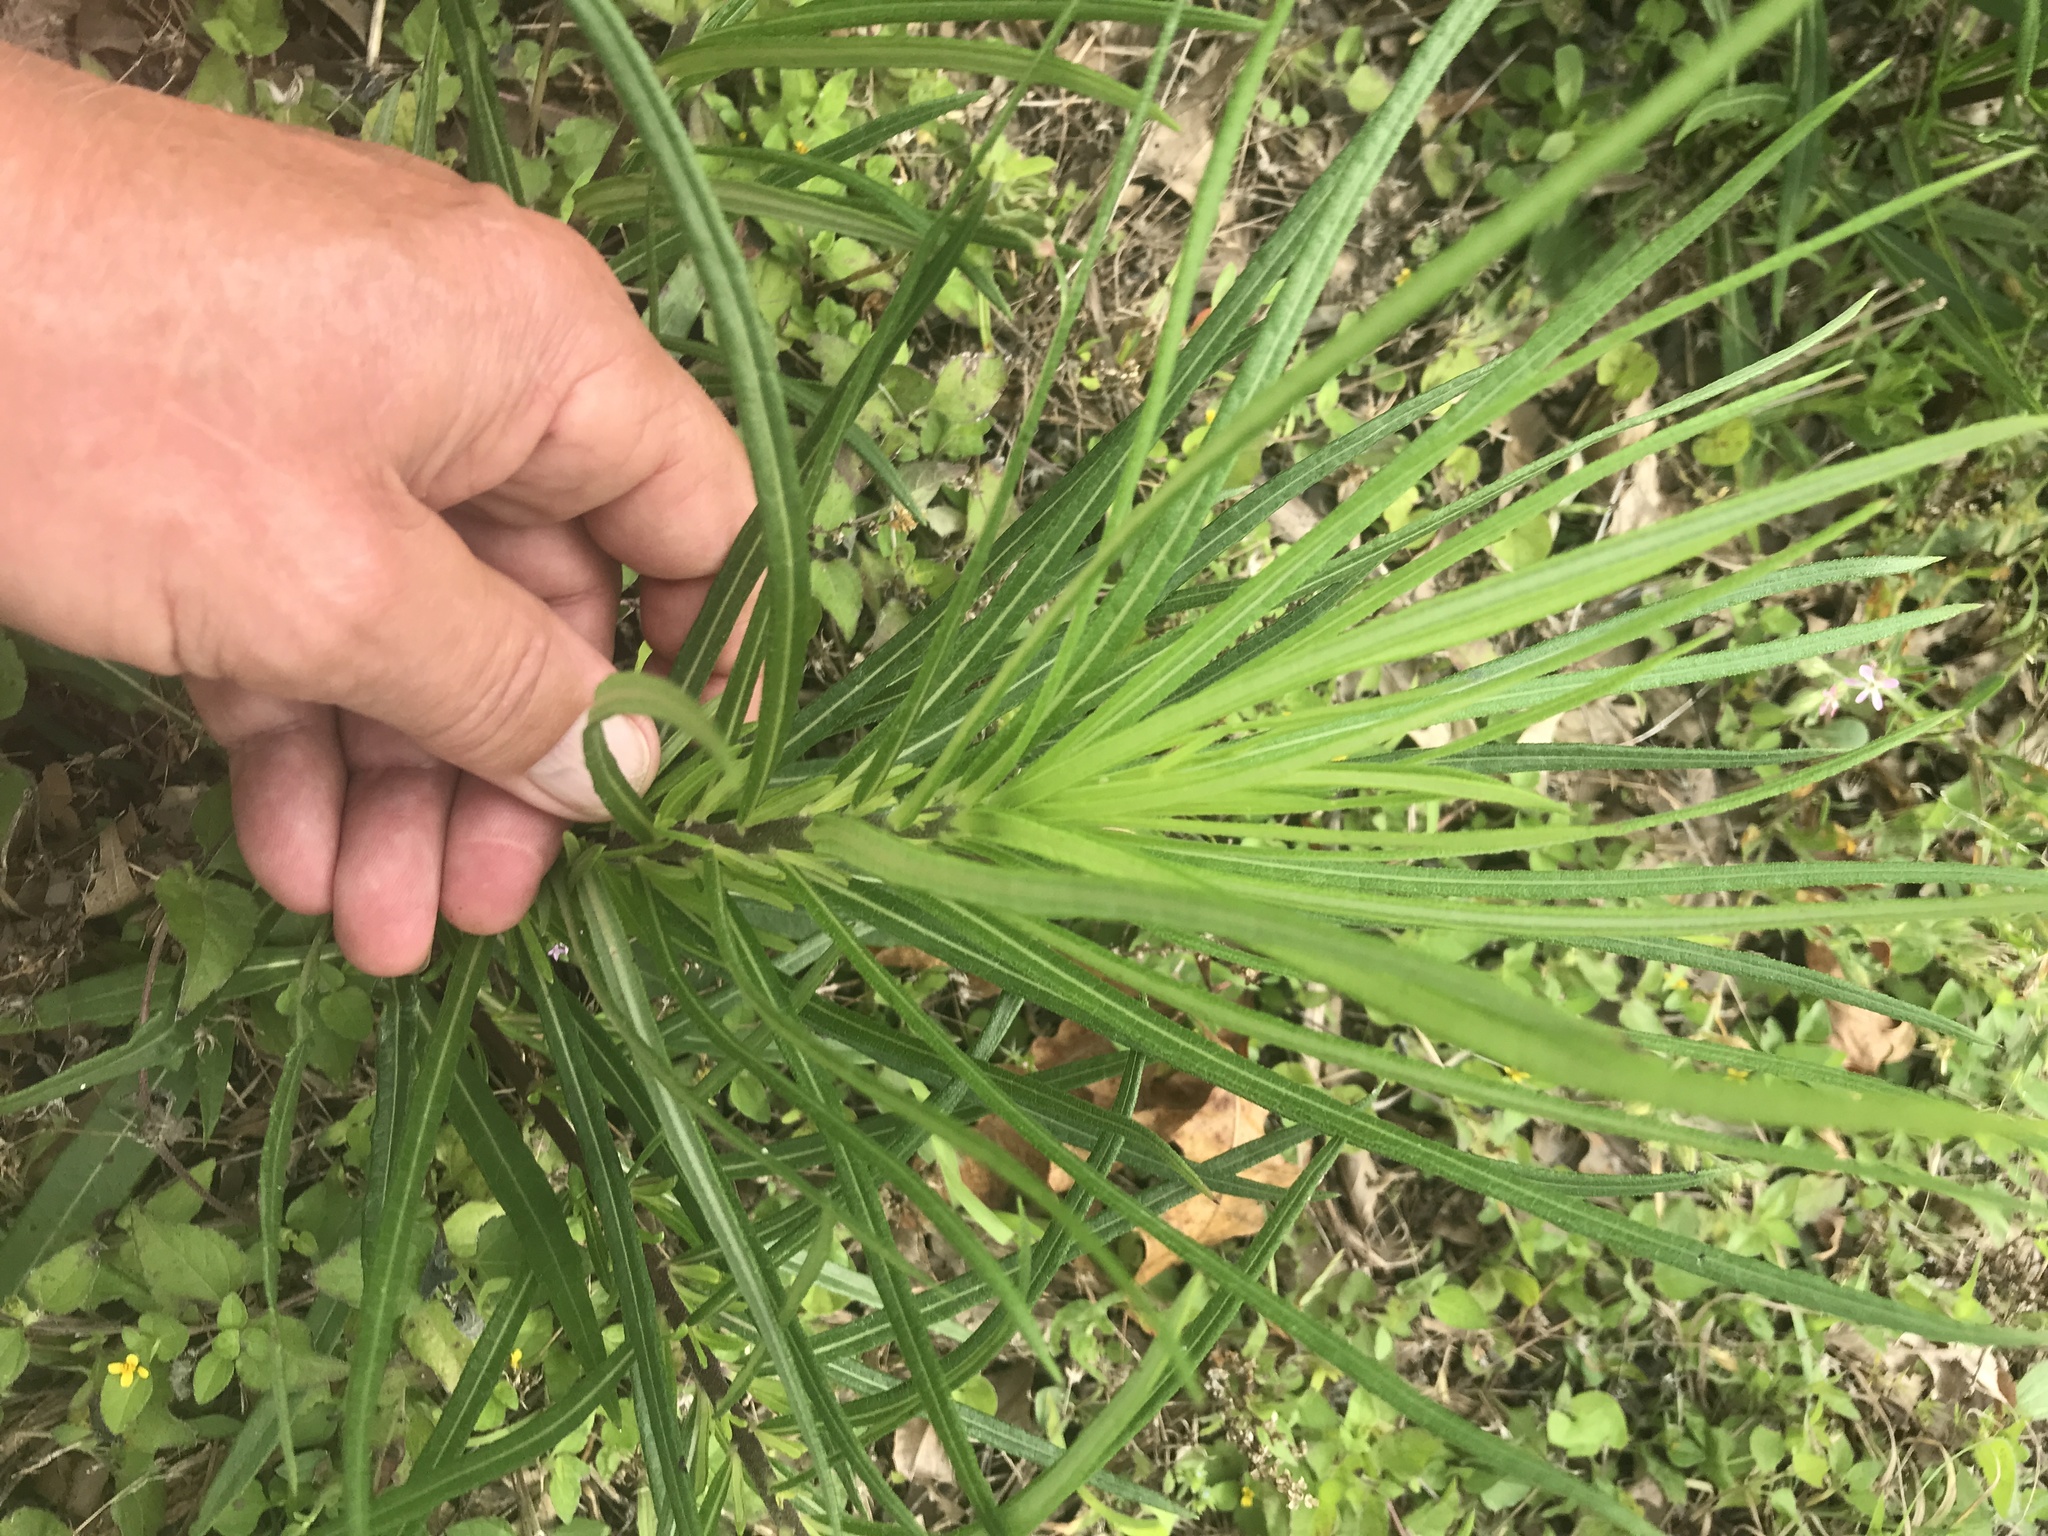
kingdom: Plantae
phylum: Tracheophyta
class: Magnoliopsida
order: Asterales
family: Asteraceae
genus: Helianthus
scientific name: Helianthus angustifolius
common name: Swamp sunflower
